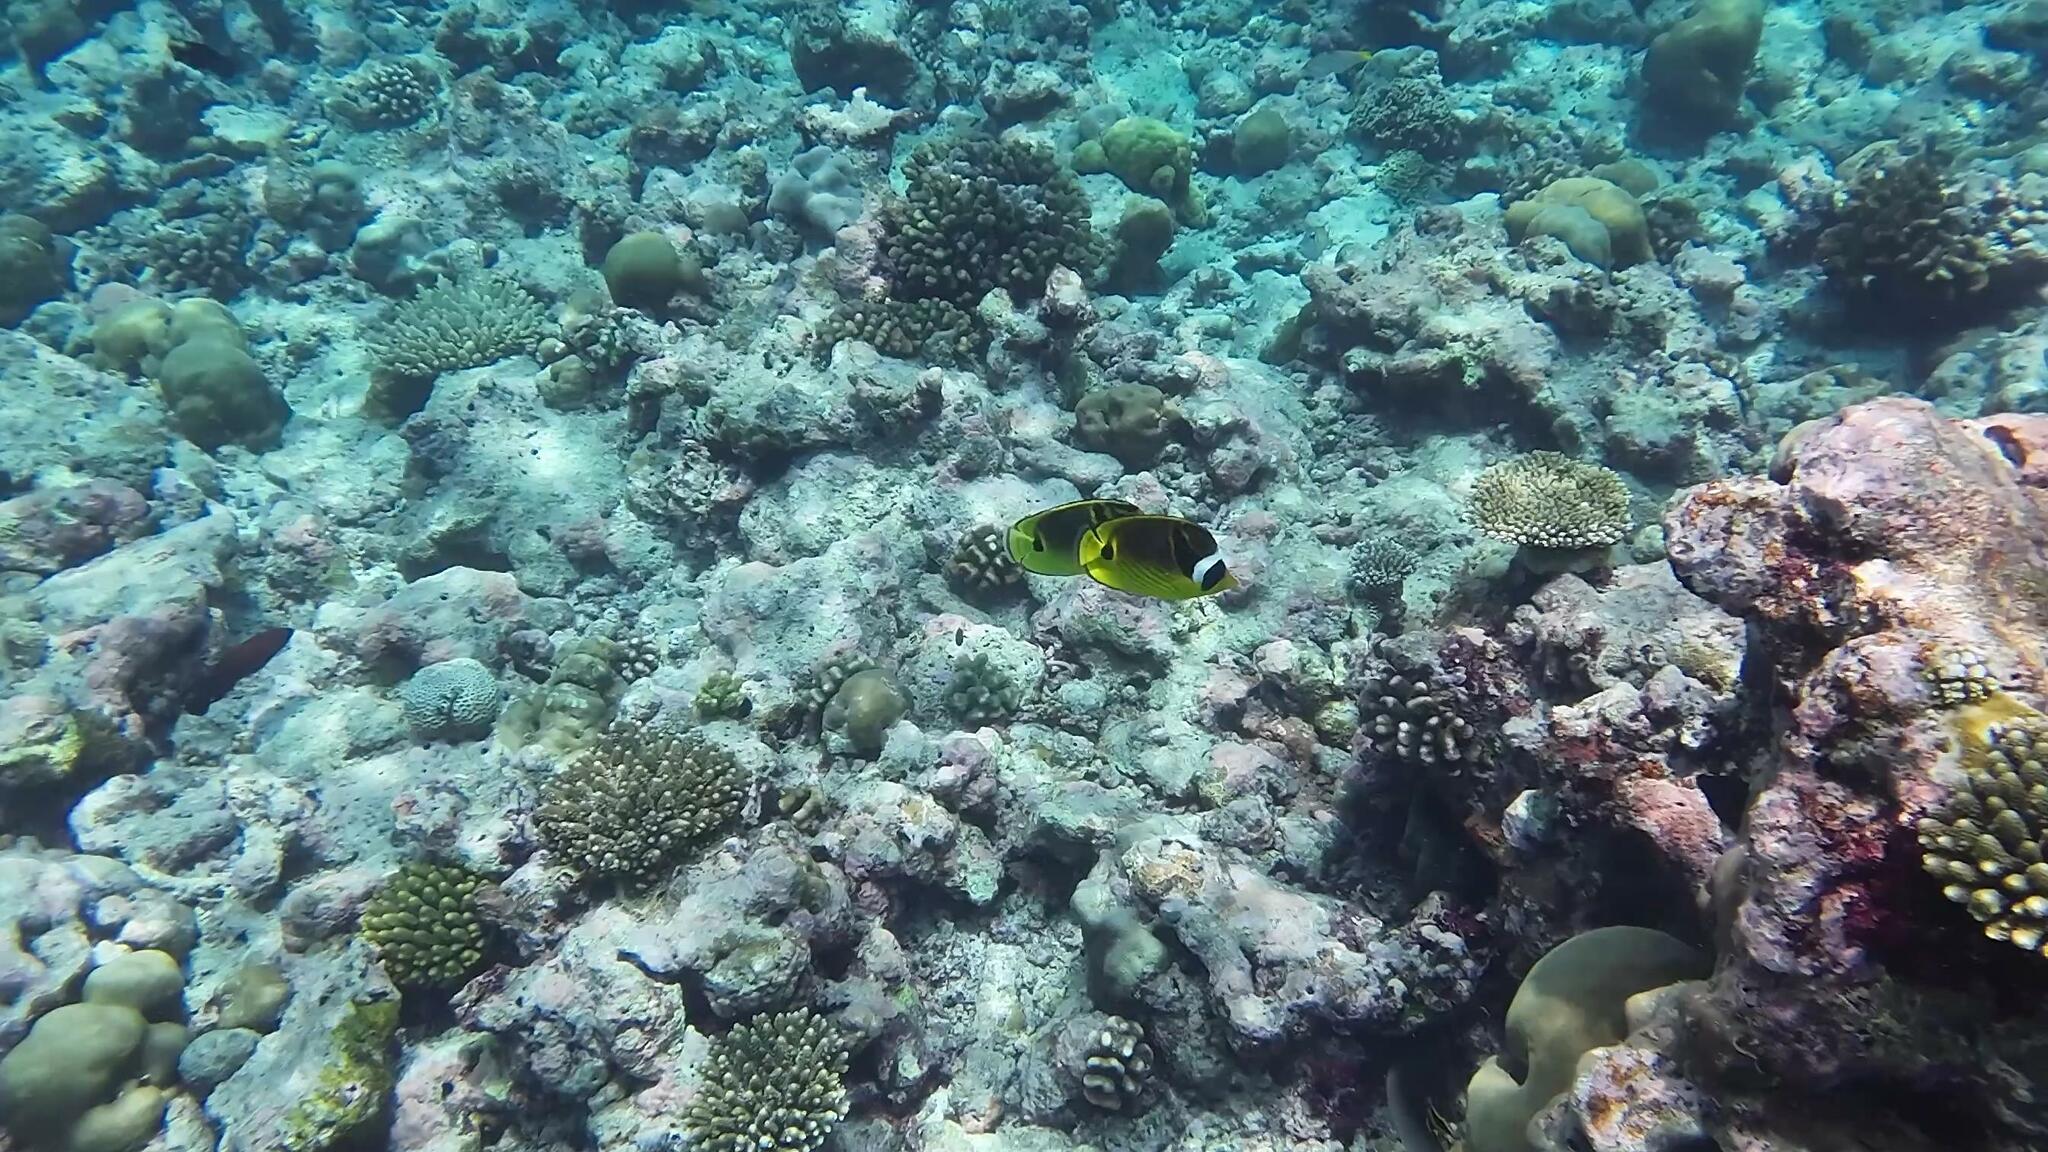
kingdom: Animalia
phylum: Chordata
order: Perciformes
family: Chaetodontidae
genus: Chaetodon
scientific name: Chaetodon lunula
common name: Raccoon butterflyfish
